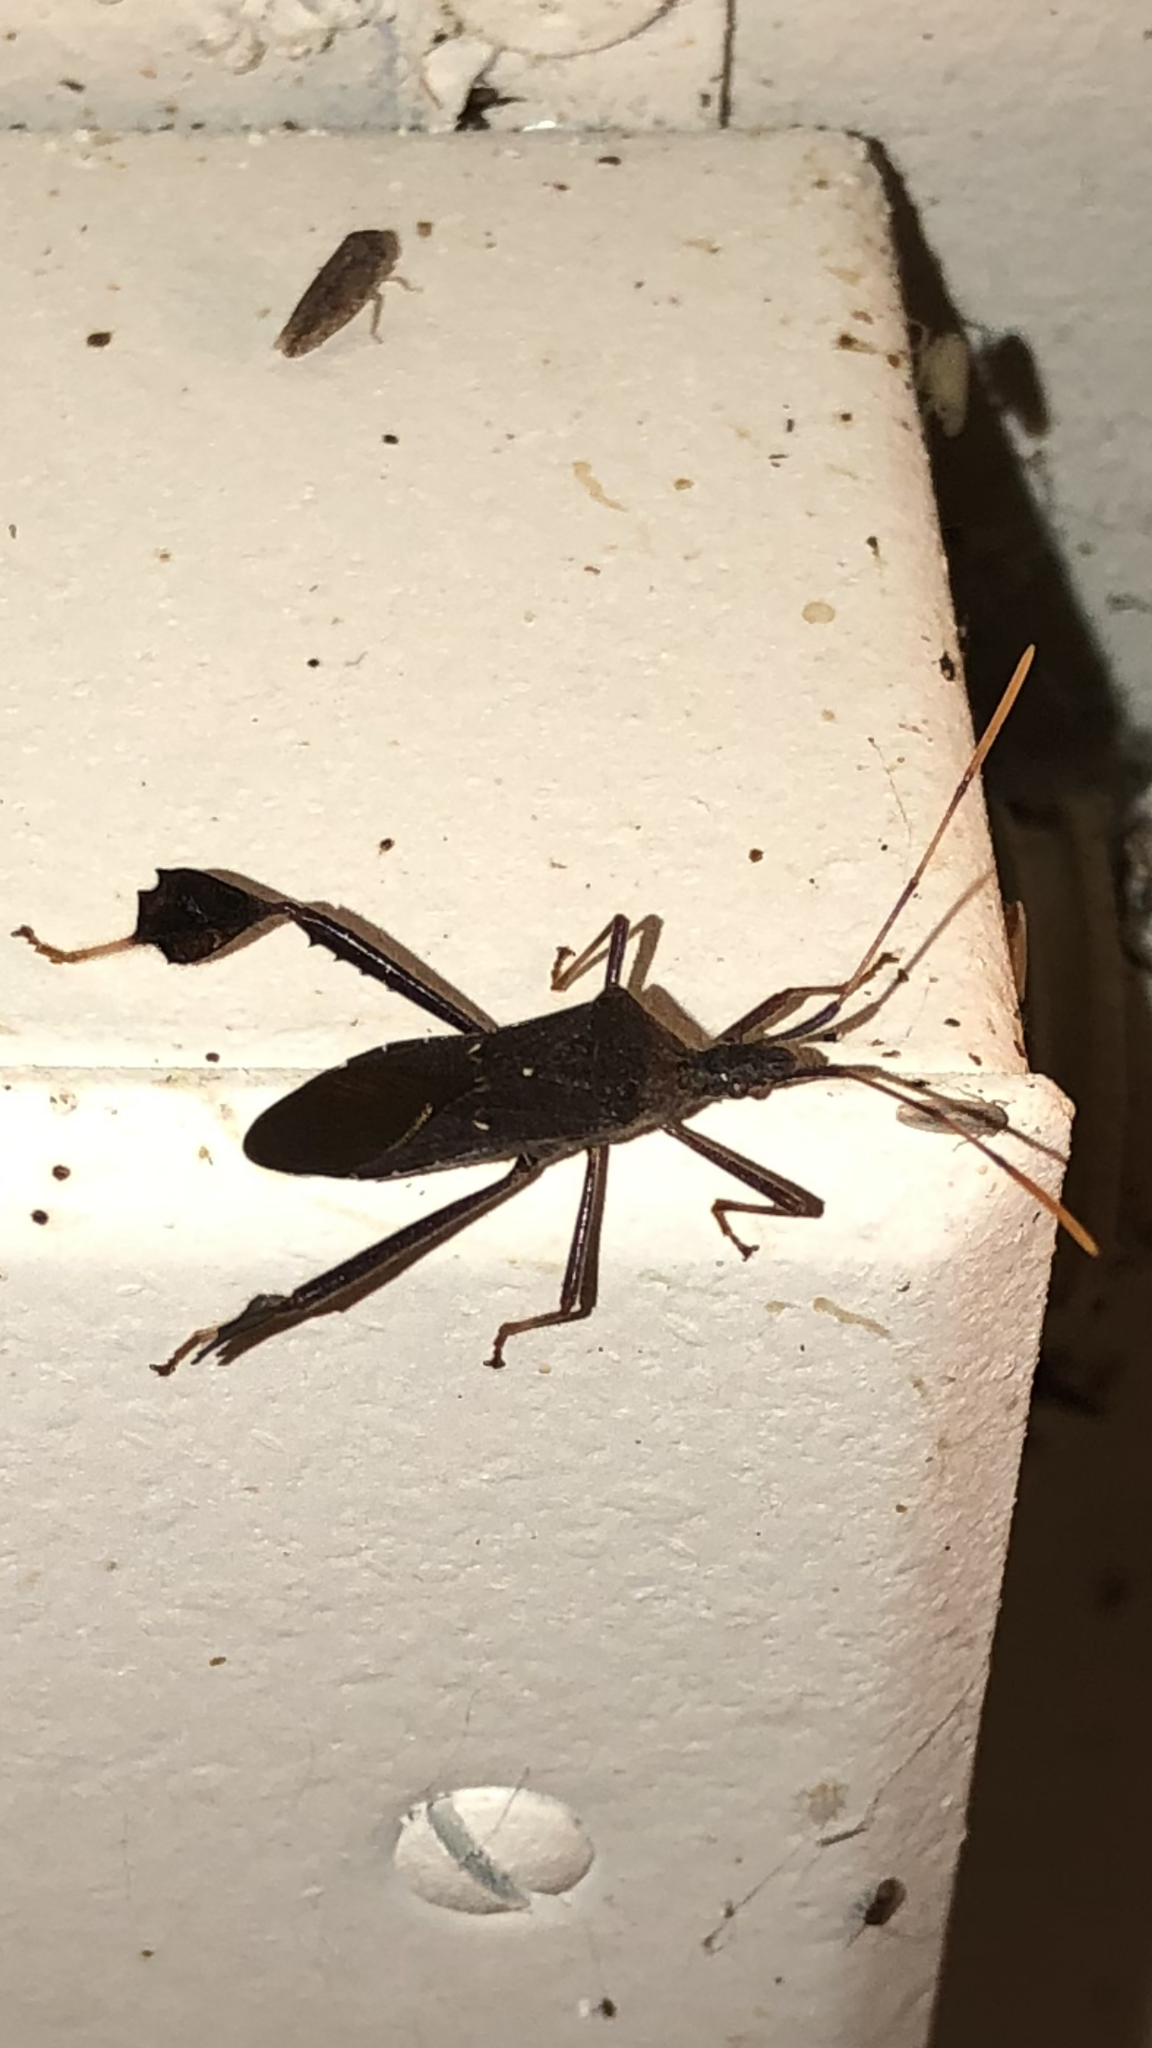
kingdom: Animalia
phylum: Arthropoda
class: Insecta
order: Hemiptera
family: Coreidae
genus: Leptoglossus
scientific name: Leptoglossus oppositus
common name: Northern leaf-footed bug
